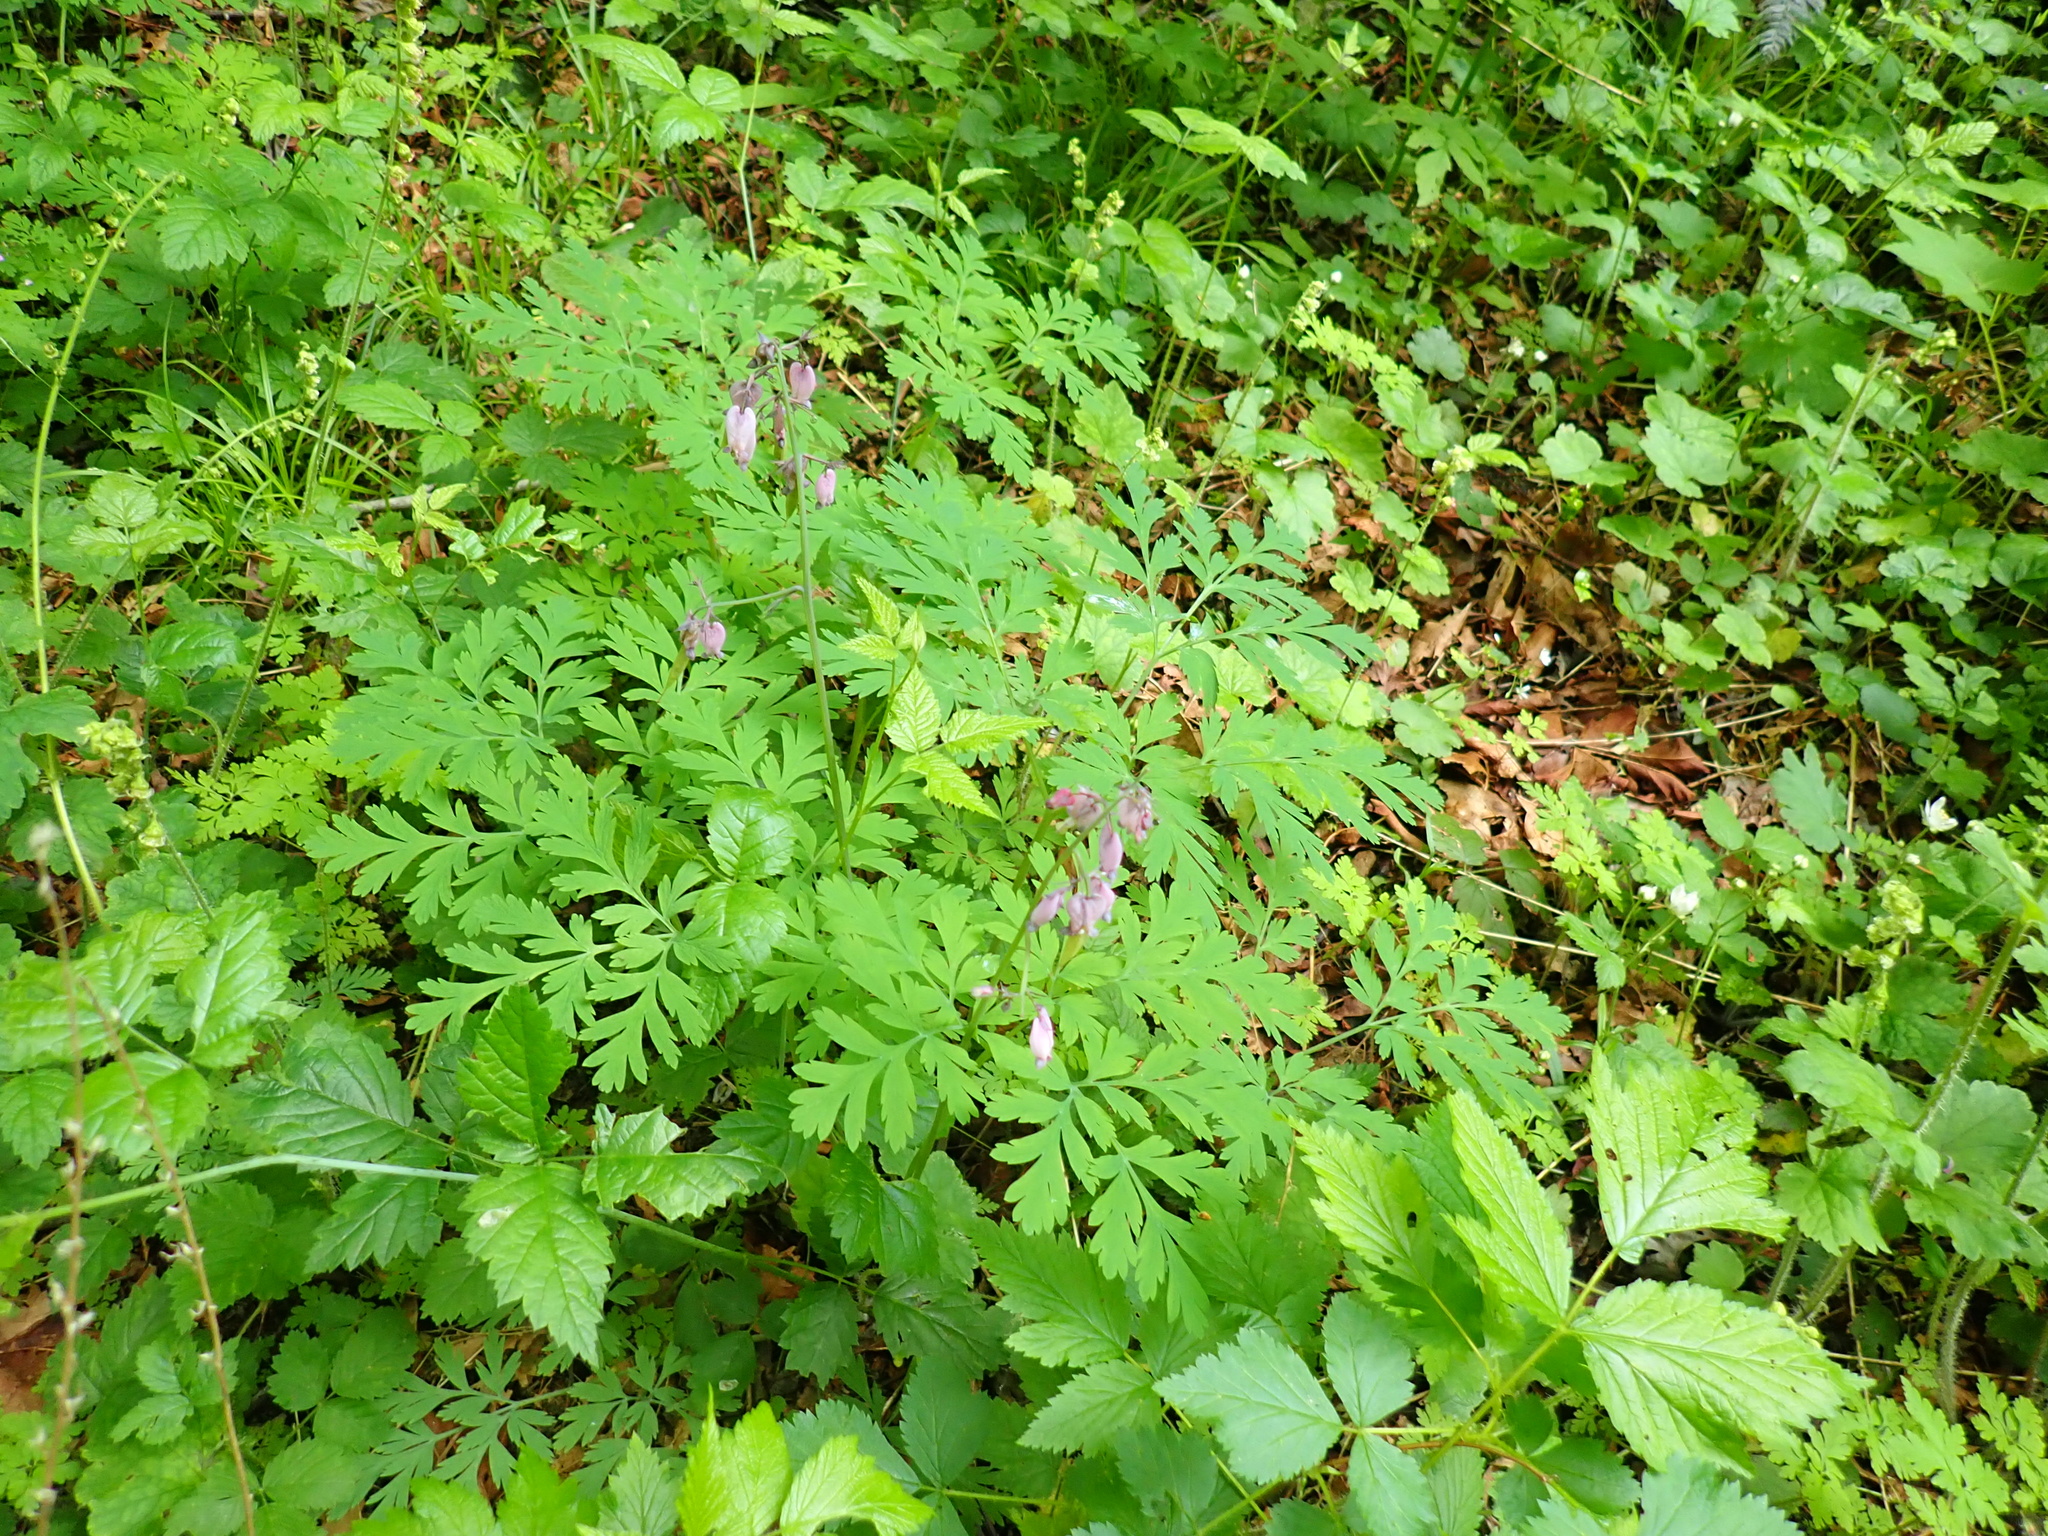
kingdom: Plantae
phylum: Tracheophyta
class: Magnoliopsida
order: Ranunculales
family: Papaveraceae
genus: Dicentra
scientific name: Dicentra formosa
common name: Bleeding-heart
